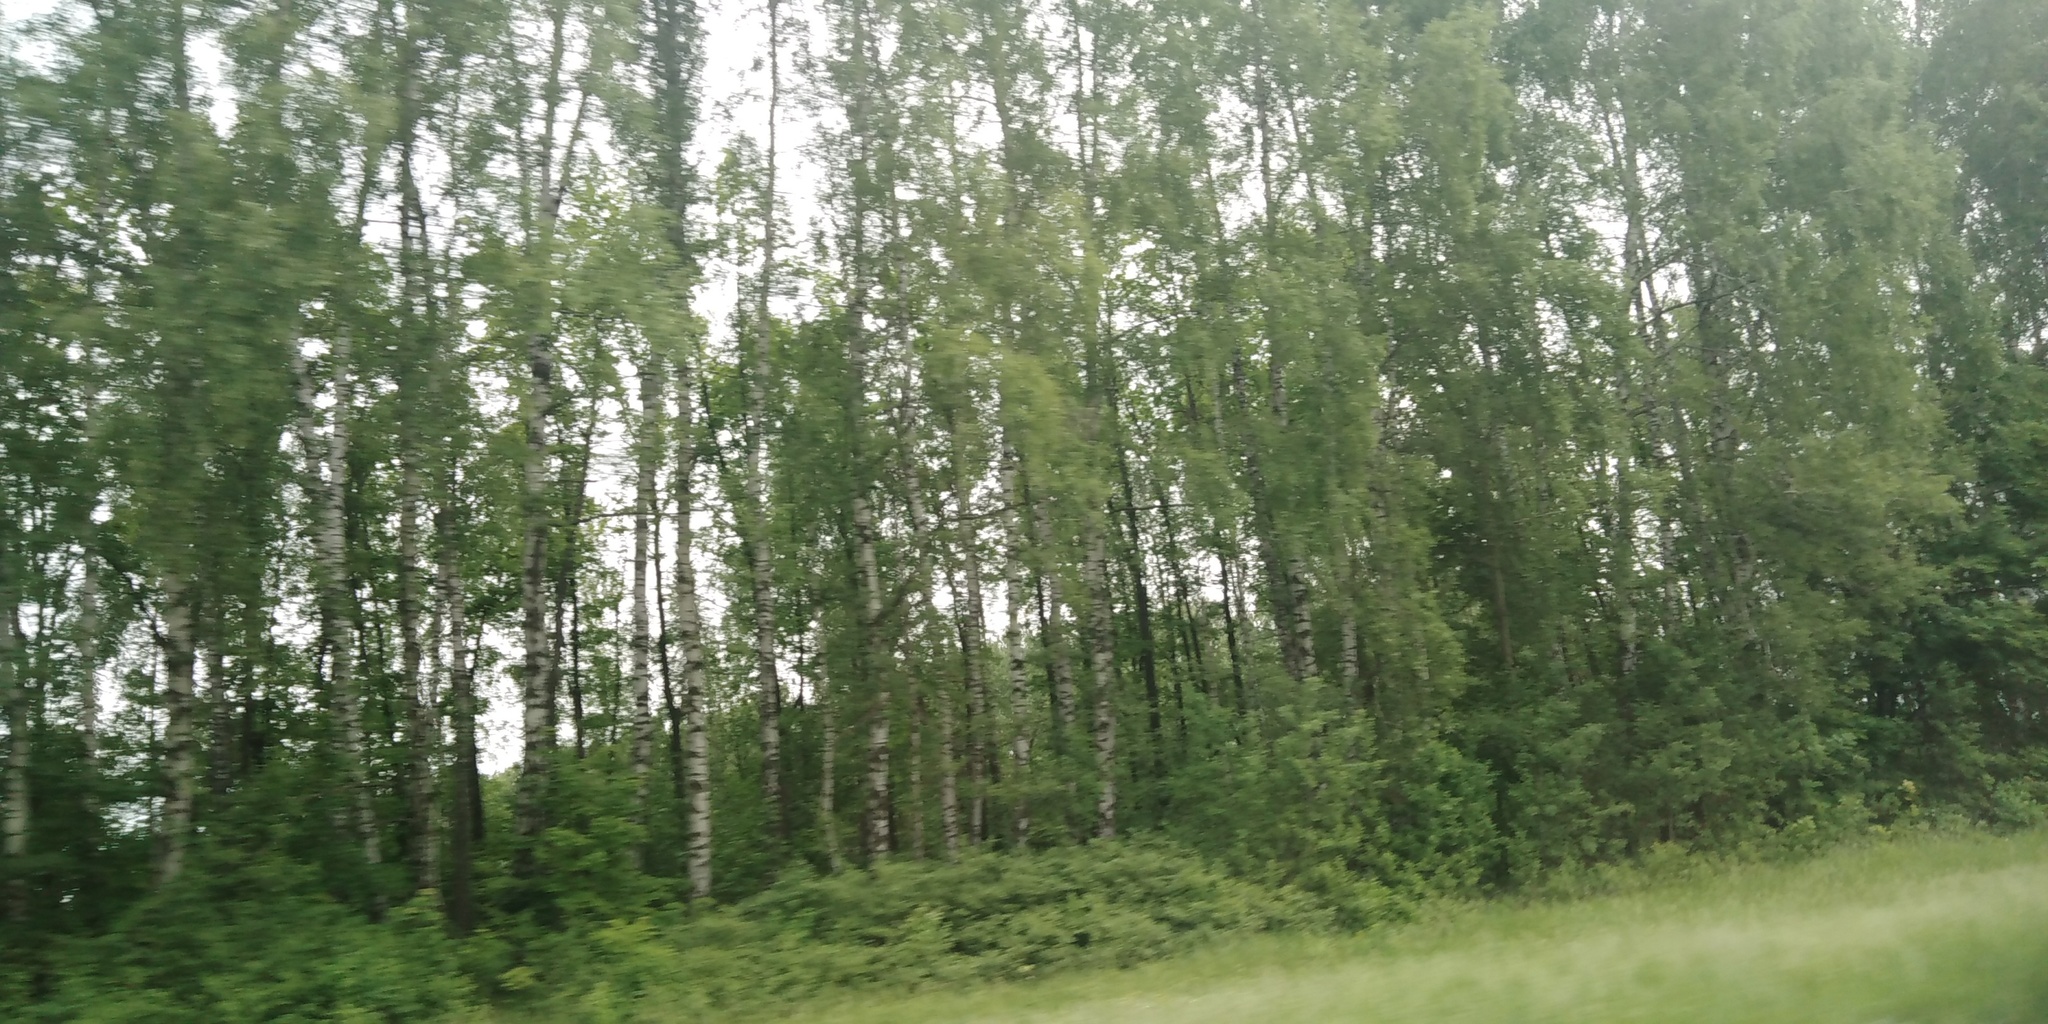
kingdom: Plantae
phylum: Tracheophyta
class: Magnoliopsida
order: Fagales
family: Betulaceae
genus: Betula
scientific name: Betula pendula
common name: Silver birch
